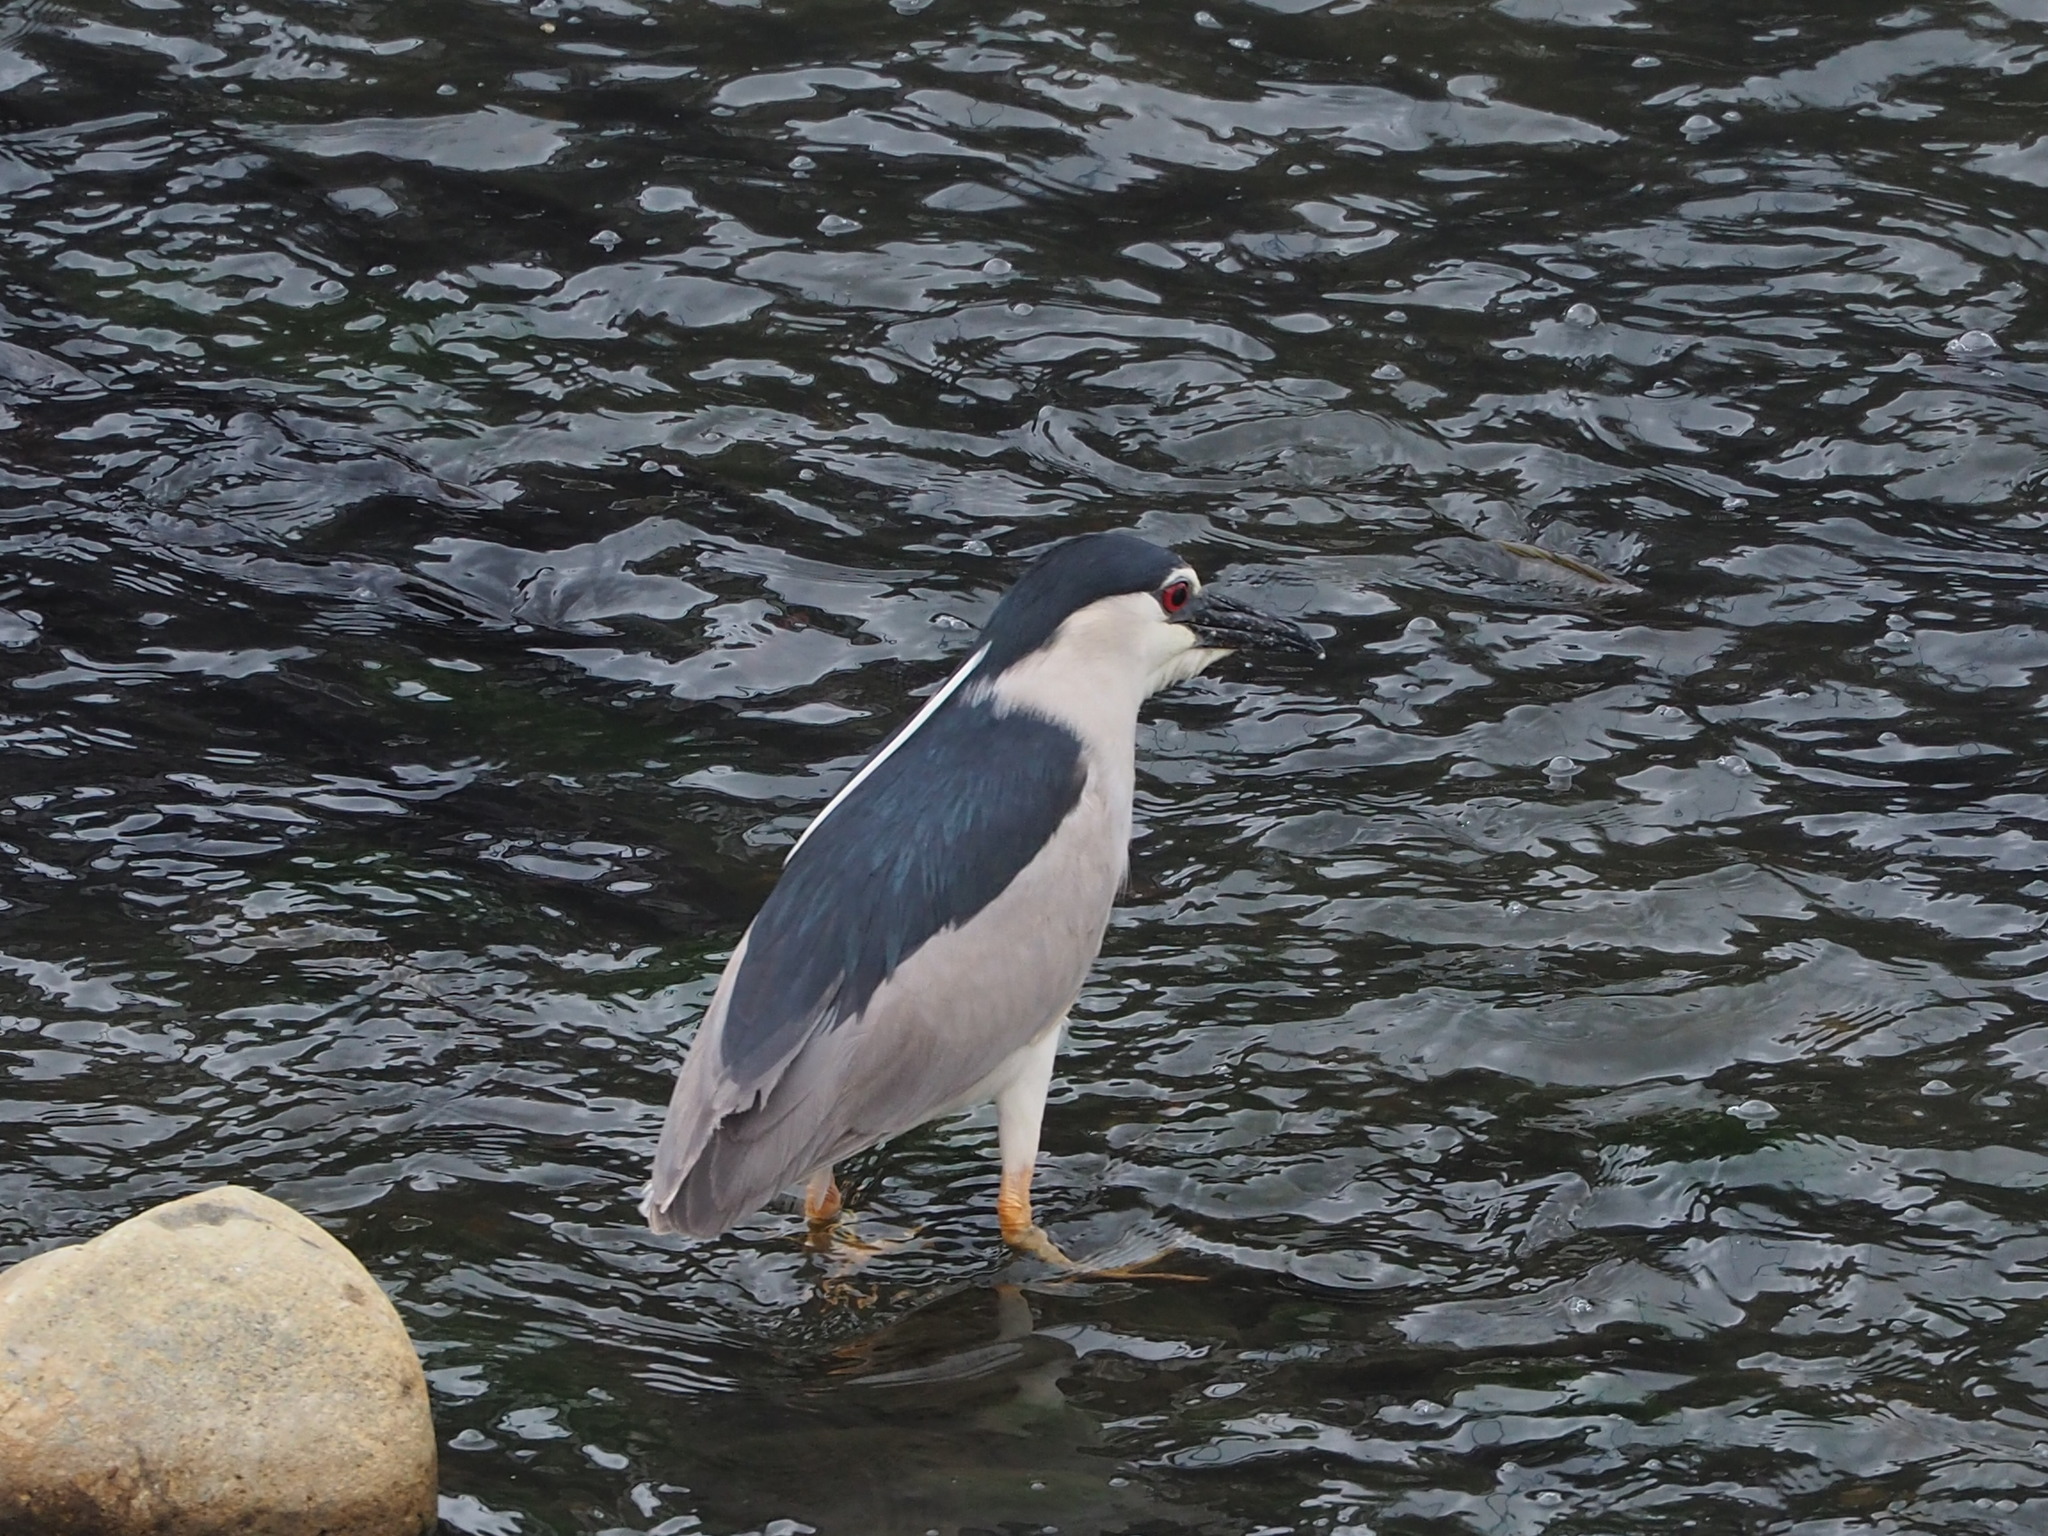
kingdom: Animalia
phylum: Chordata
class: Aves
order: Pelecaniformes
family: Ardeidae
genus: Nycticorax
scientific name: Nycticorax nycticorax
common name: Black-crowned night heron
